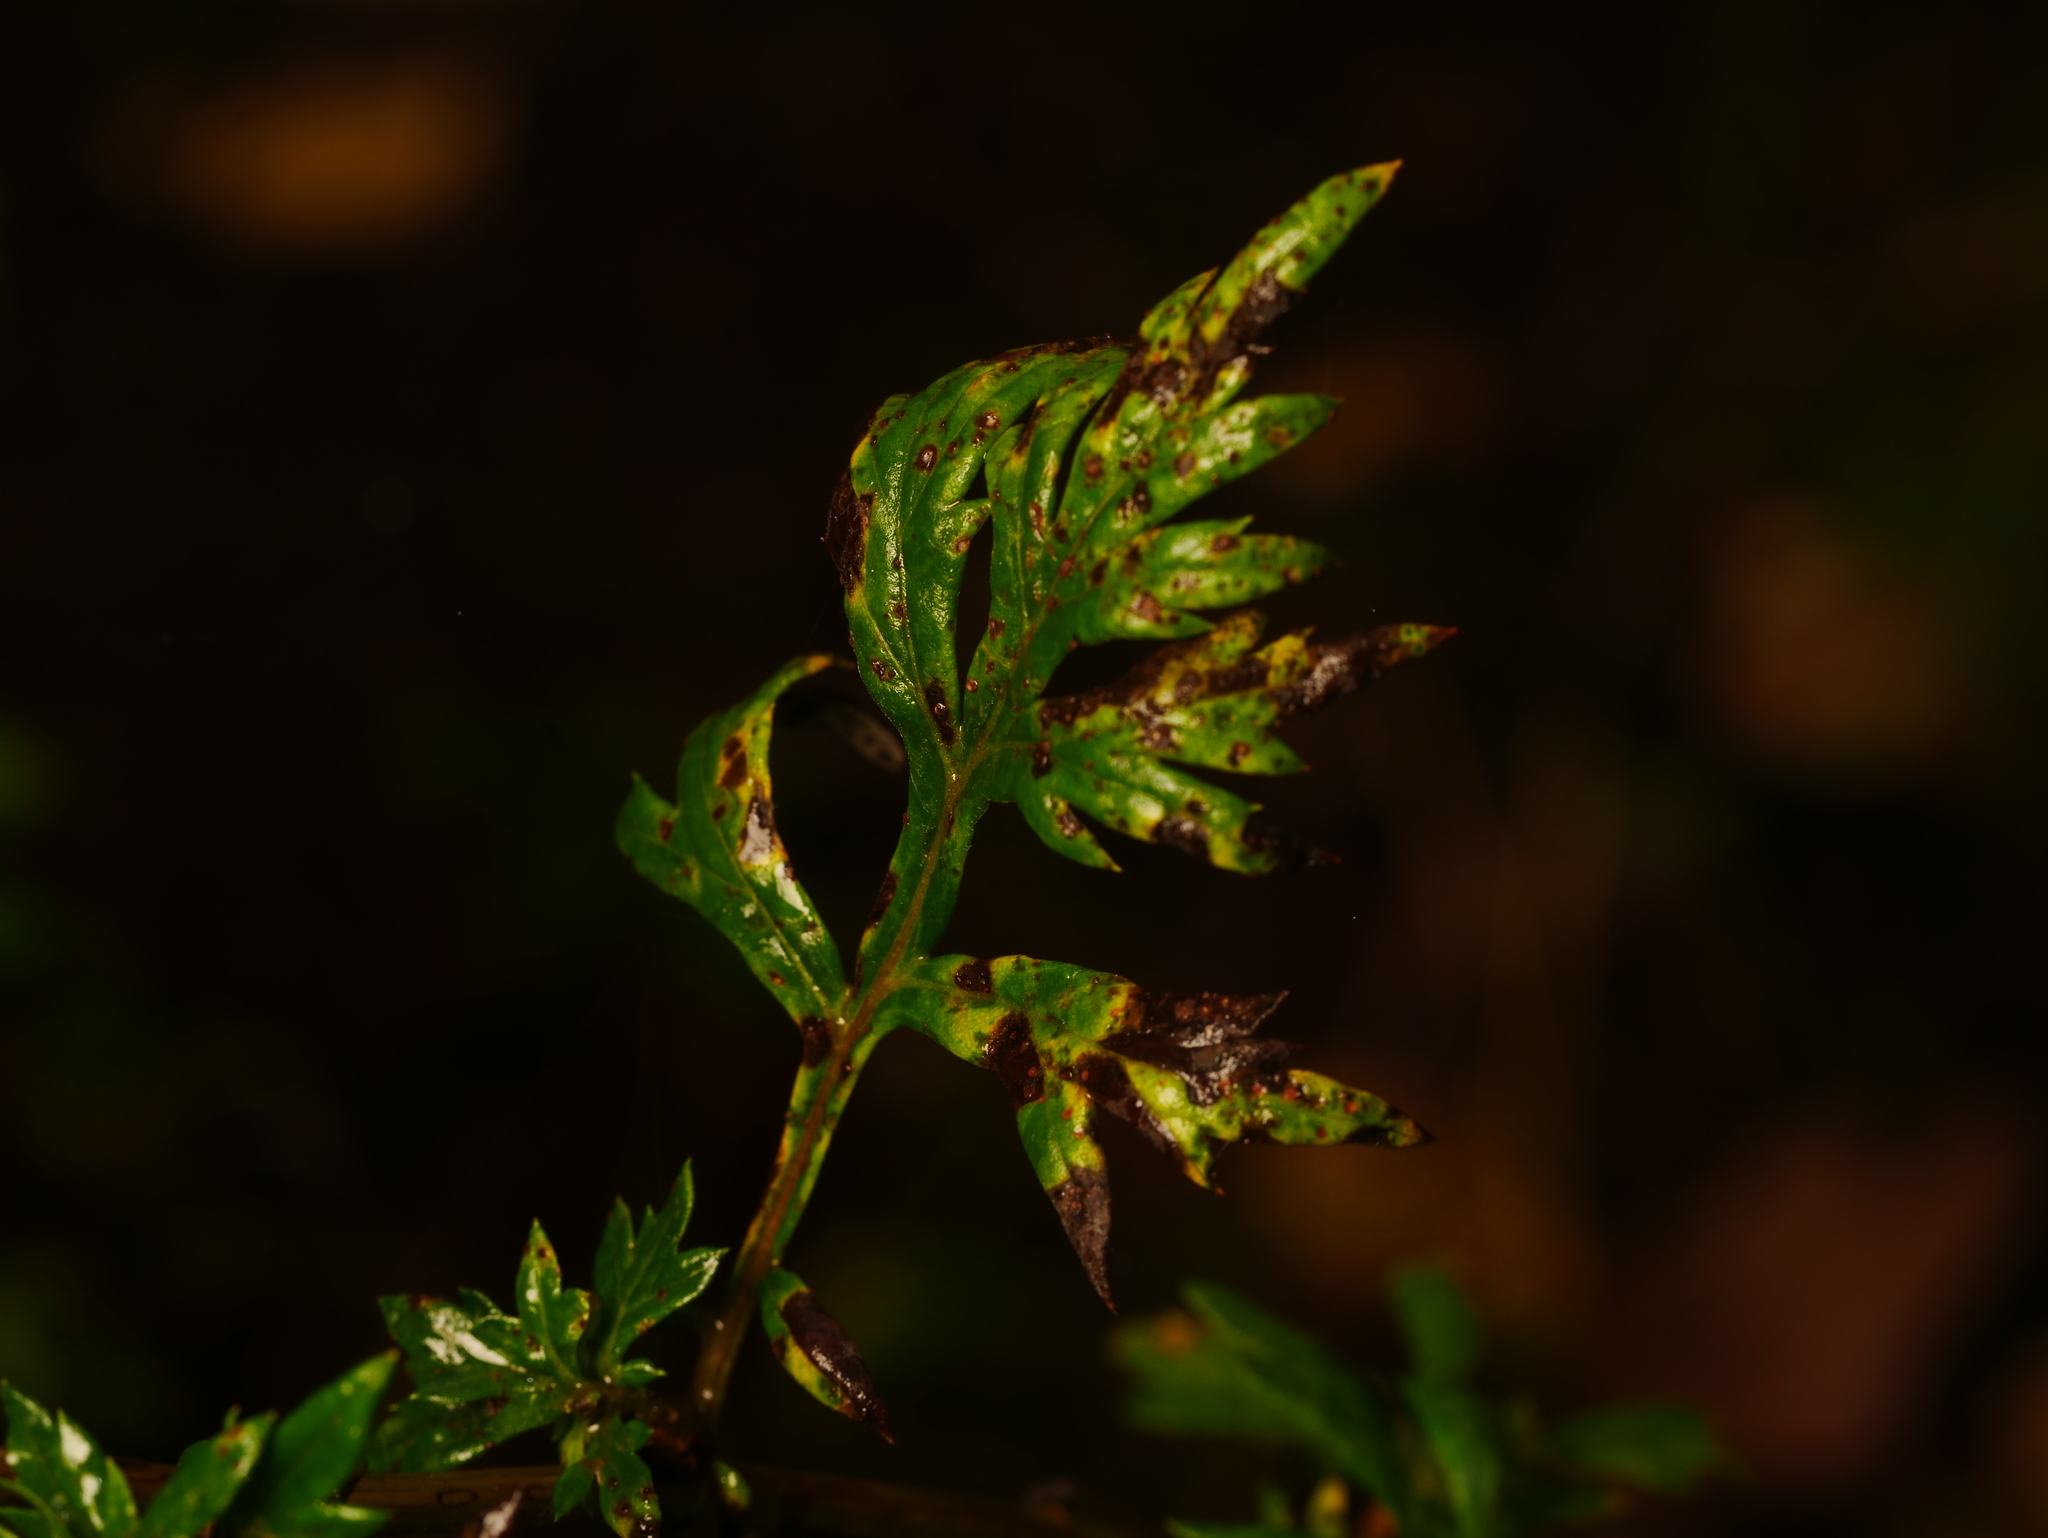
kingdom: Plantae
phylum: Tracheophyta
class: Magnoliopsida
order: Asterales
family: Asteraceae
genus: Artemisia
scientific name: Artemisia vulgaris
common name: Mugwort
